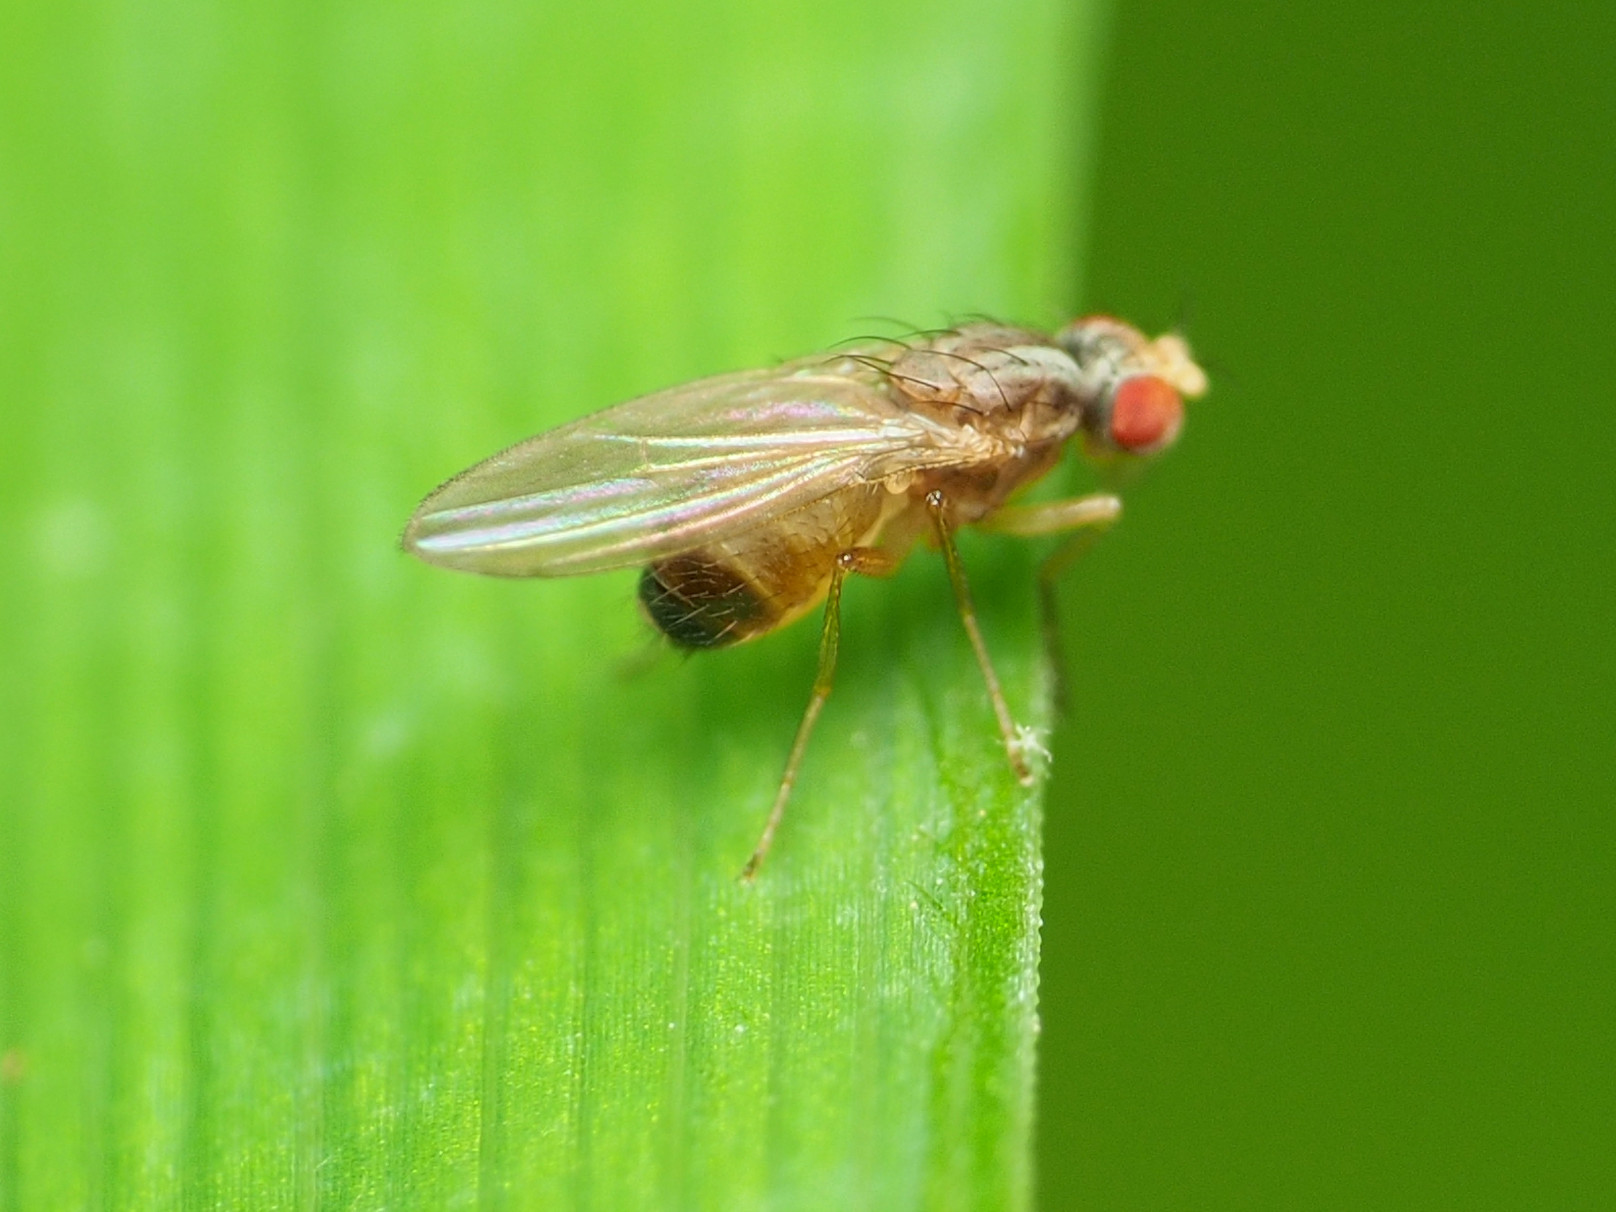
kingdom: Animalia
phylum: Arthropoda
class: Insecta
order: Diptera
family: Drosophilidae
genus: Scaptomyza
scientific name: Scaptomyza pallida
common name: Pomace fly
